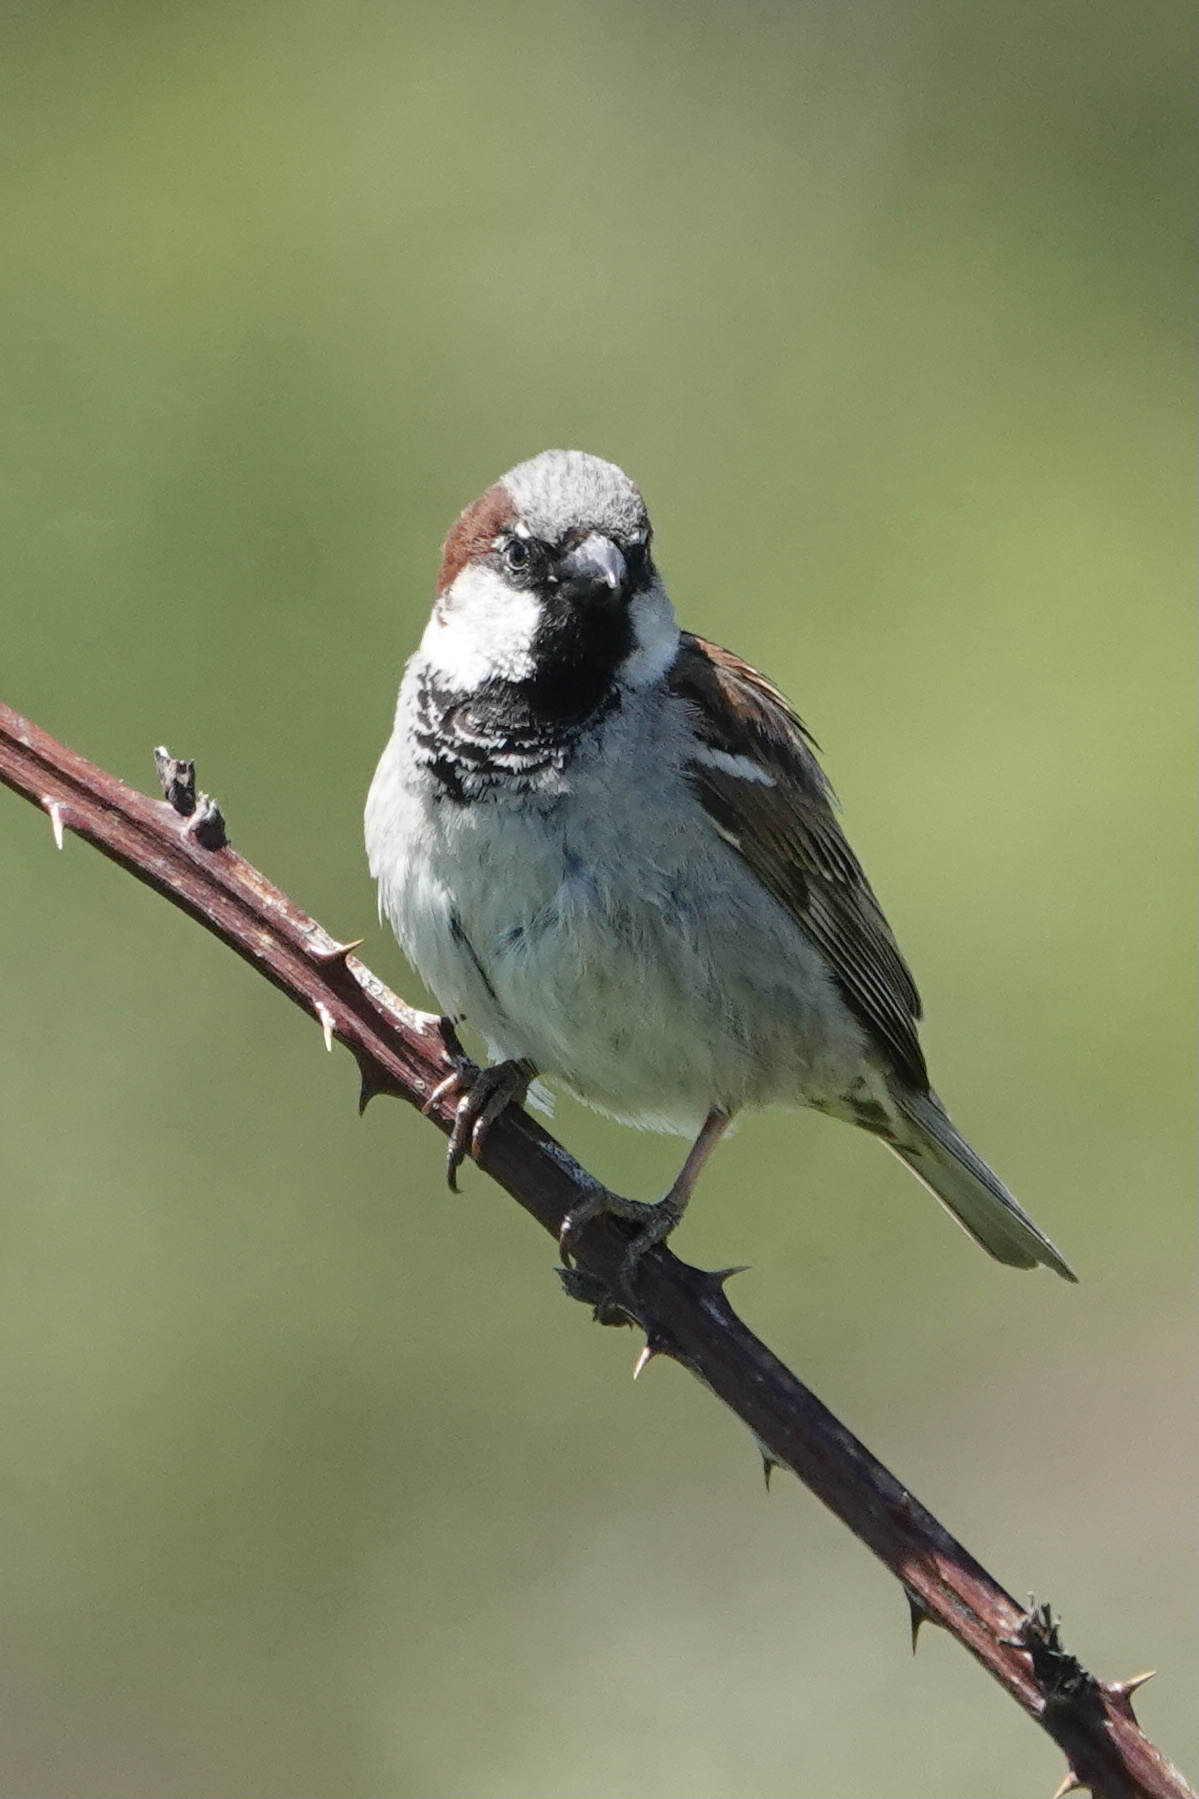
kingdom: Animalia
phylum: Chordata
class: Aves
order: Passeriformes
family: Passeridae
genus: Passer
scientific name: Passer domesticus
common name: House sparrow
